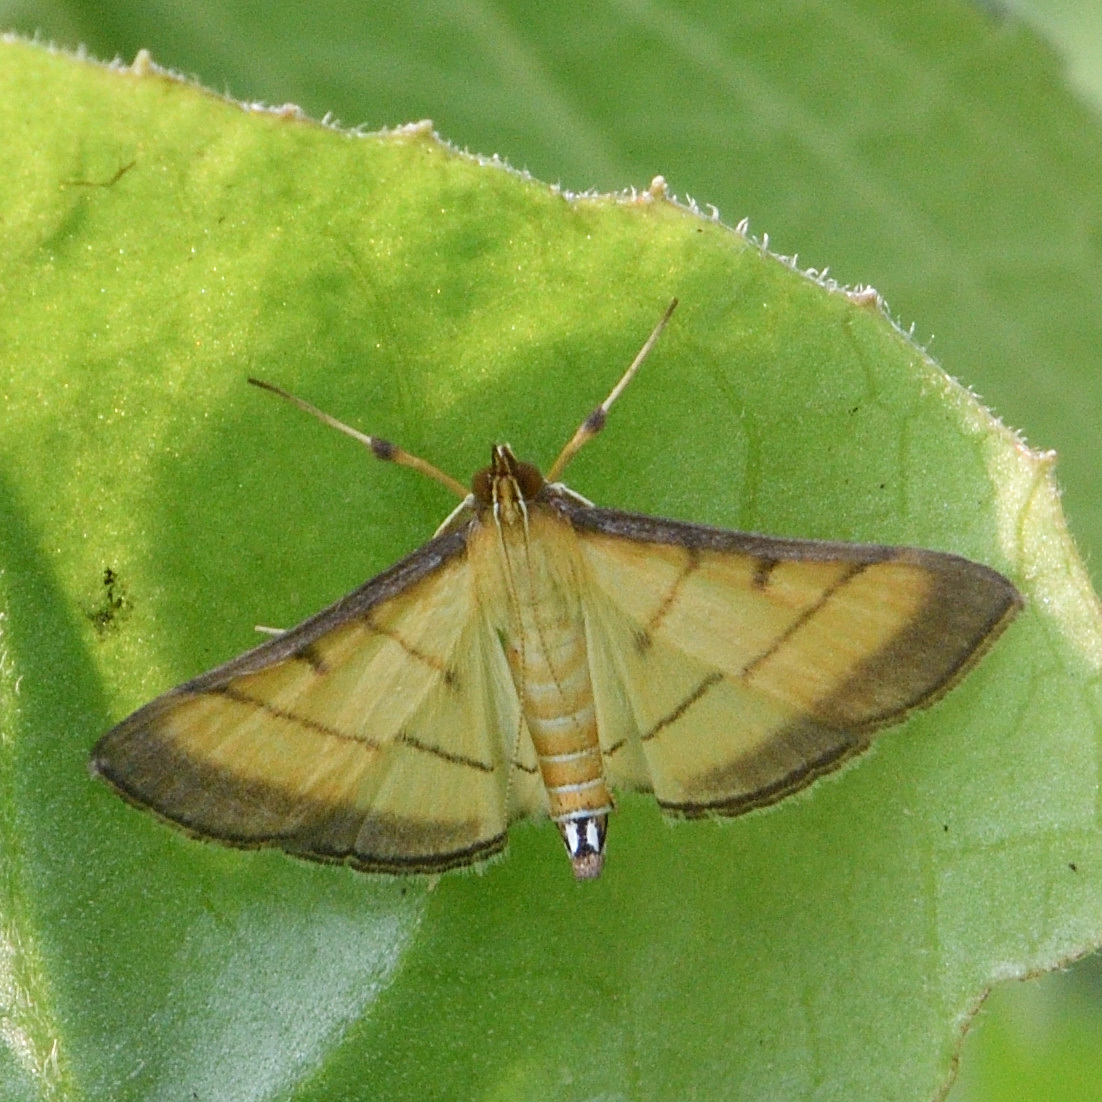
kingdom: Animalia
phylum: Arthropoda
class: Insecta
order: Lepidoptera
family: Crambidae
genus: Cnaphalocrocis
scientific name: Cnaphalocrocis medinalis
